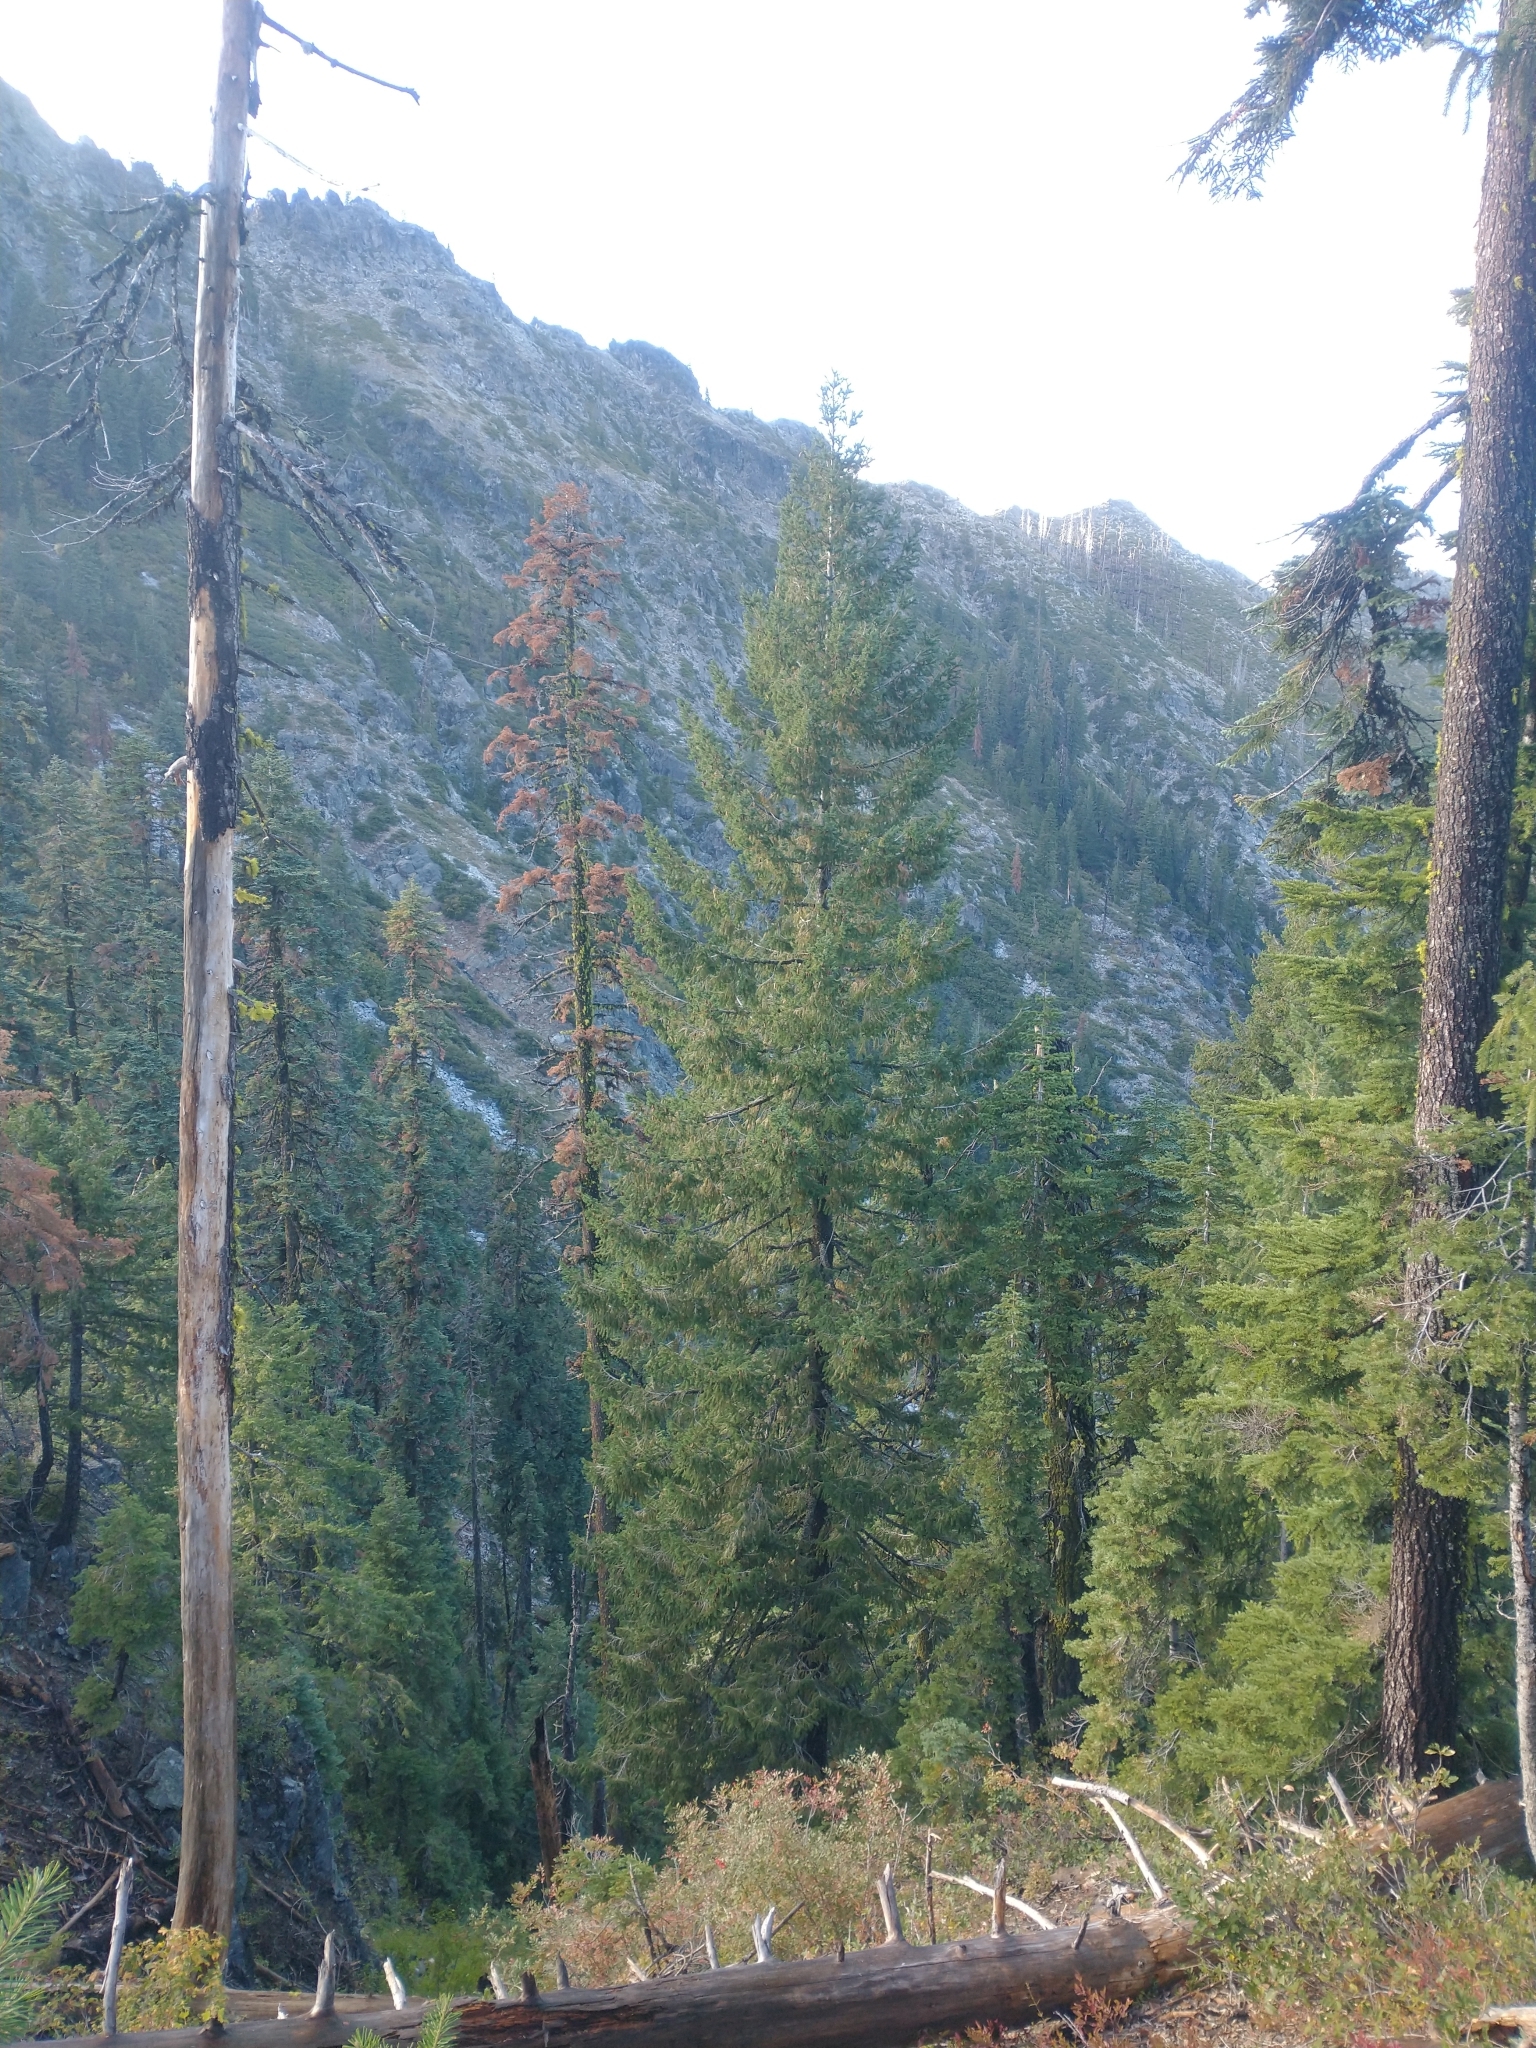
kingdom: Plantae
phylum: Tracheophyta
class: Pinopsida
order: Pinales
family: Pinaceae
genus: Pseudotsuga
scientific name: Pseudotsuga menziesii
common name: Douglas fir
